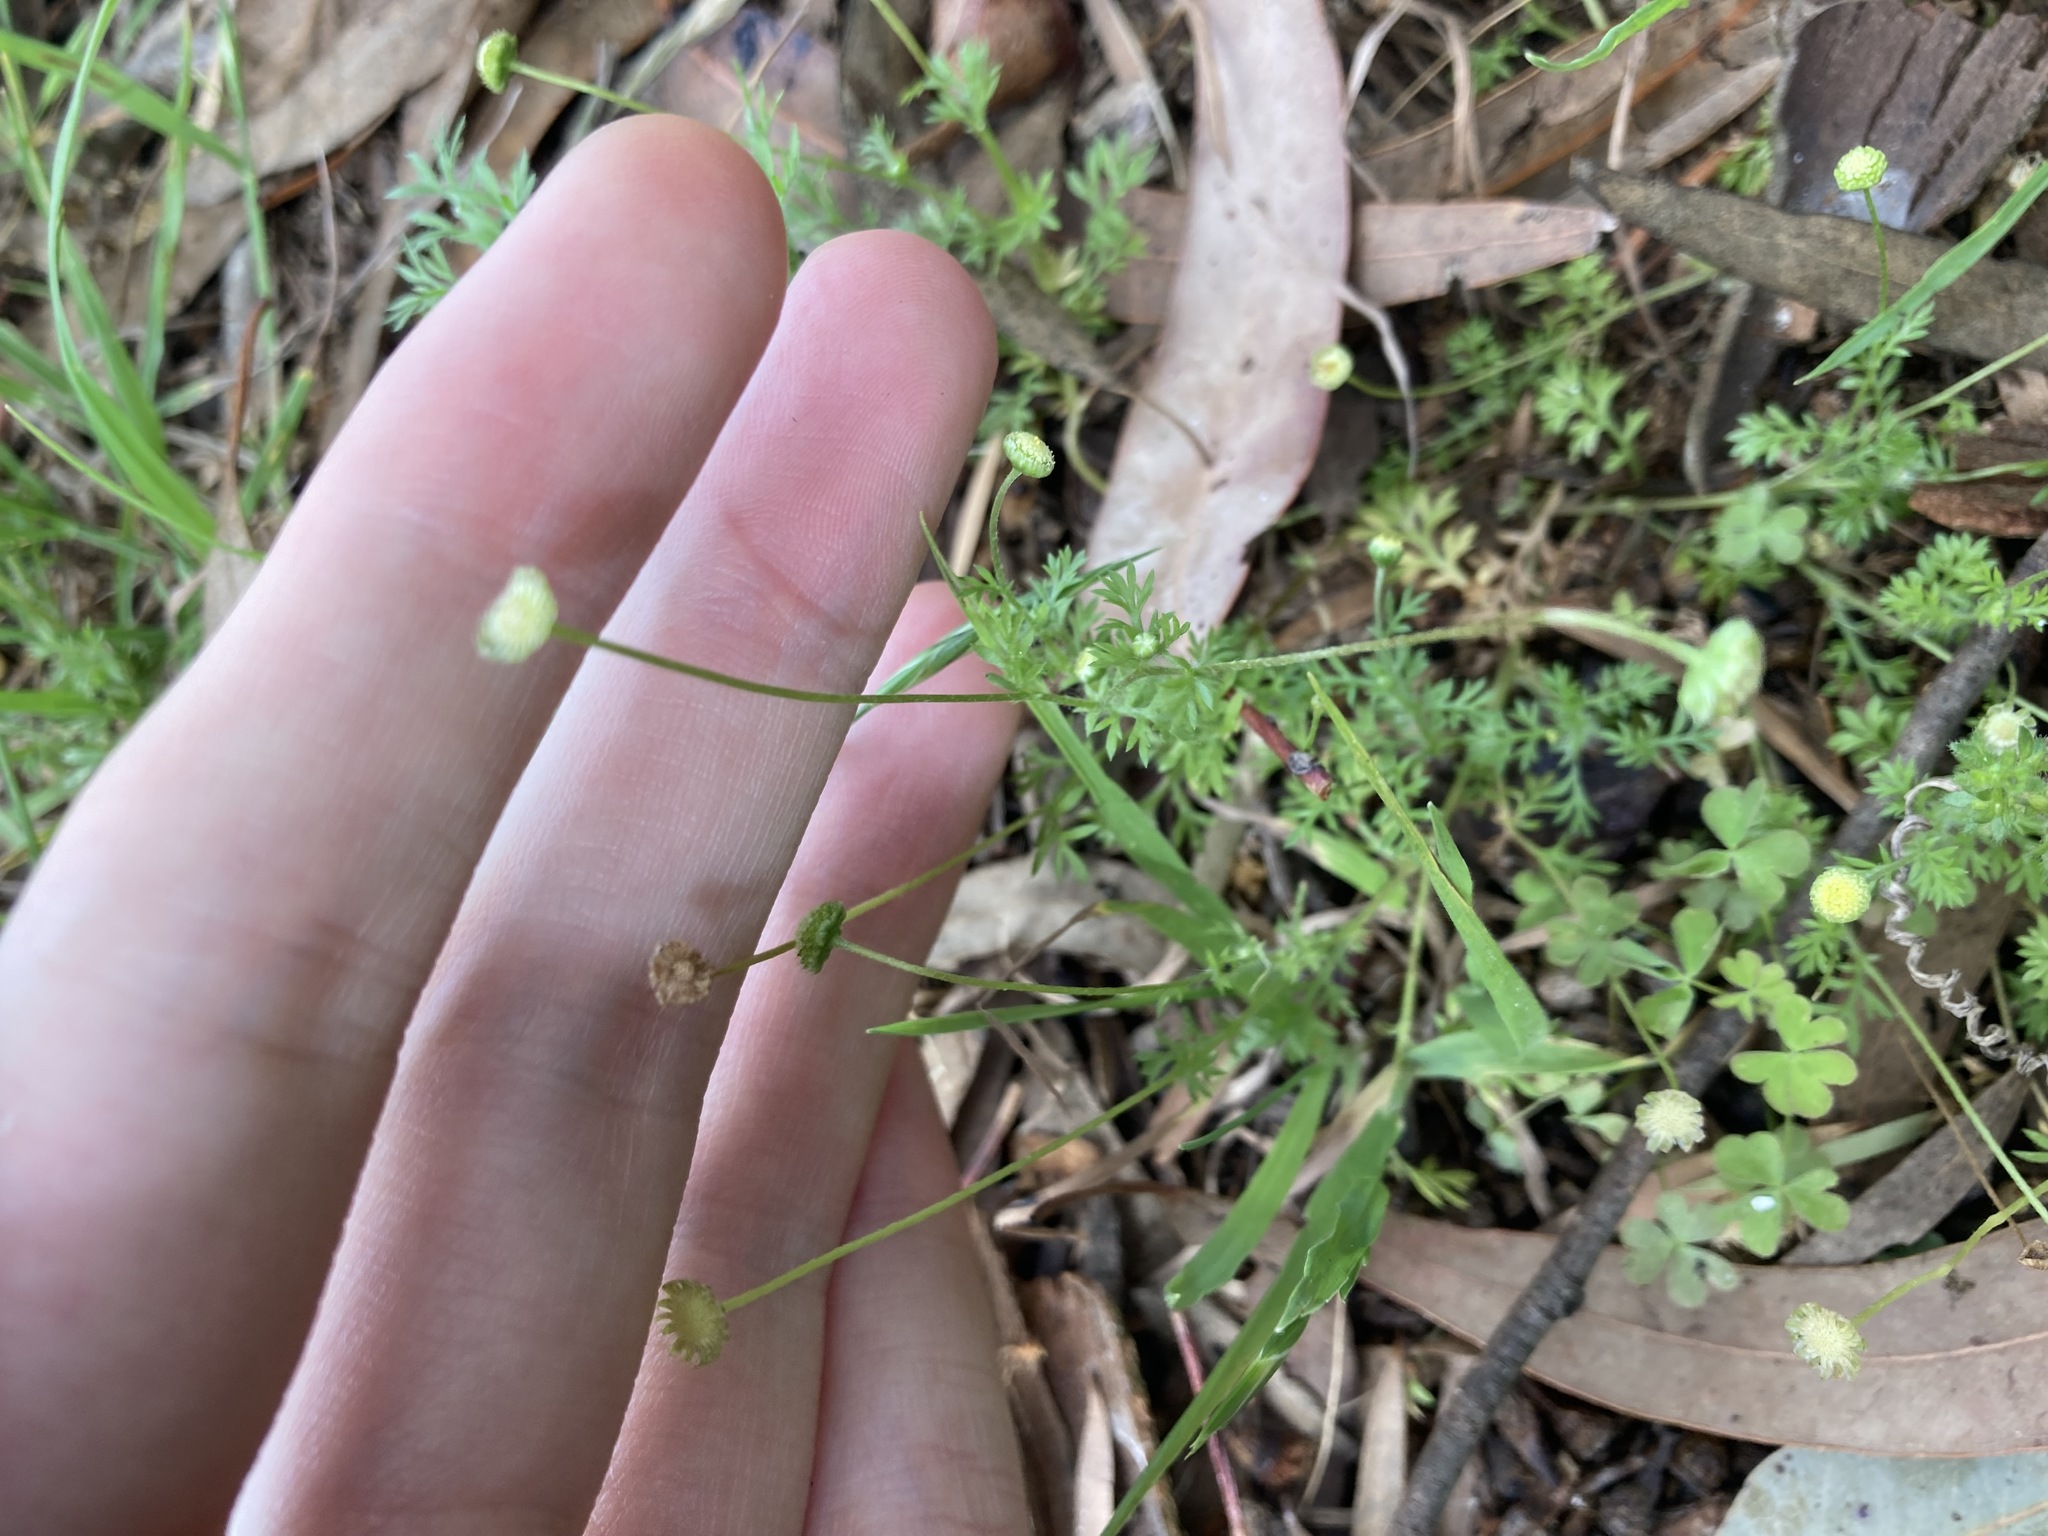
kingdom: Plantae
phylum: Tracheophyta
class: Magnoliopsida
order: Asterales
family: Asteraceae
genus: Cotula
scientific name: Cotula australis
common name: Australian waterbuttons
